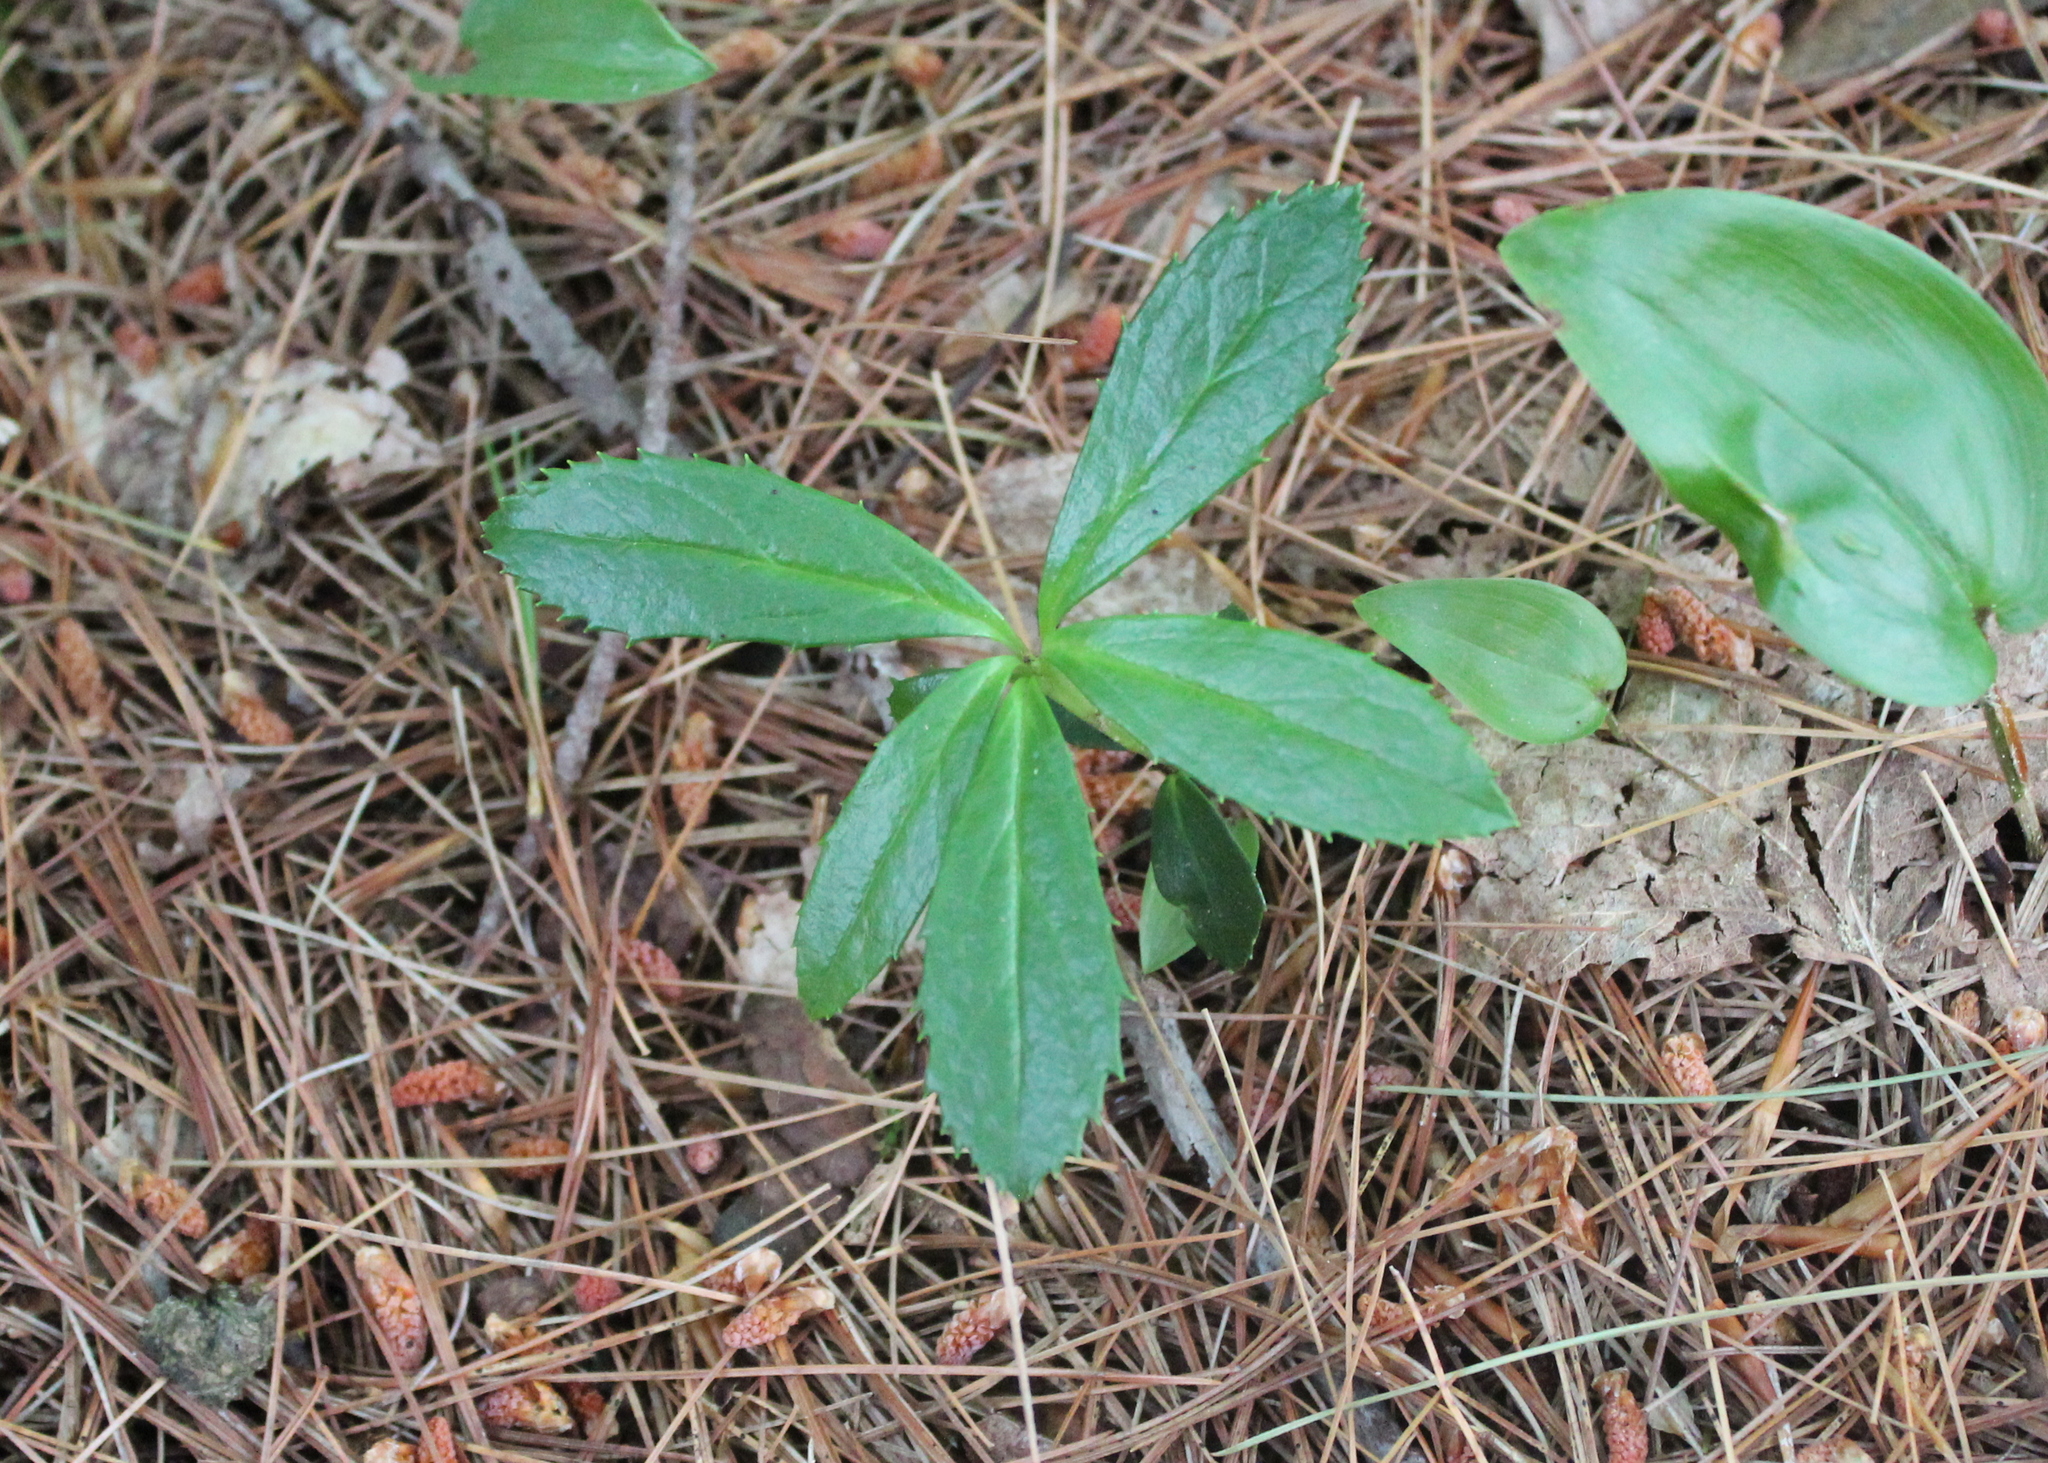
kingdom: Plantae
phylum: Tracheophyta
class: Magnoliopsida
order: Ericales
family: Ericaceae
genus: Chimaphila
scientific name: Chimaphila umbellata
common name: Pipsissewa
